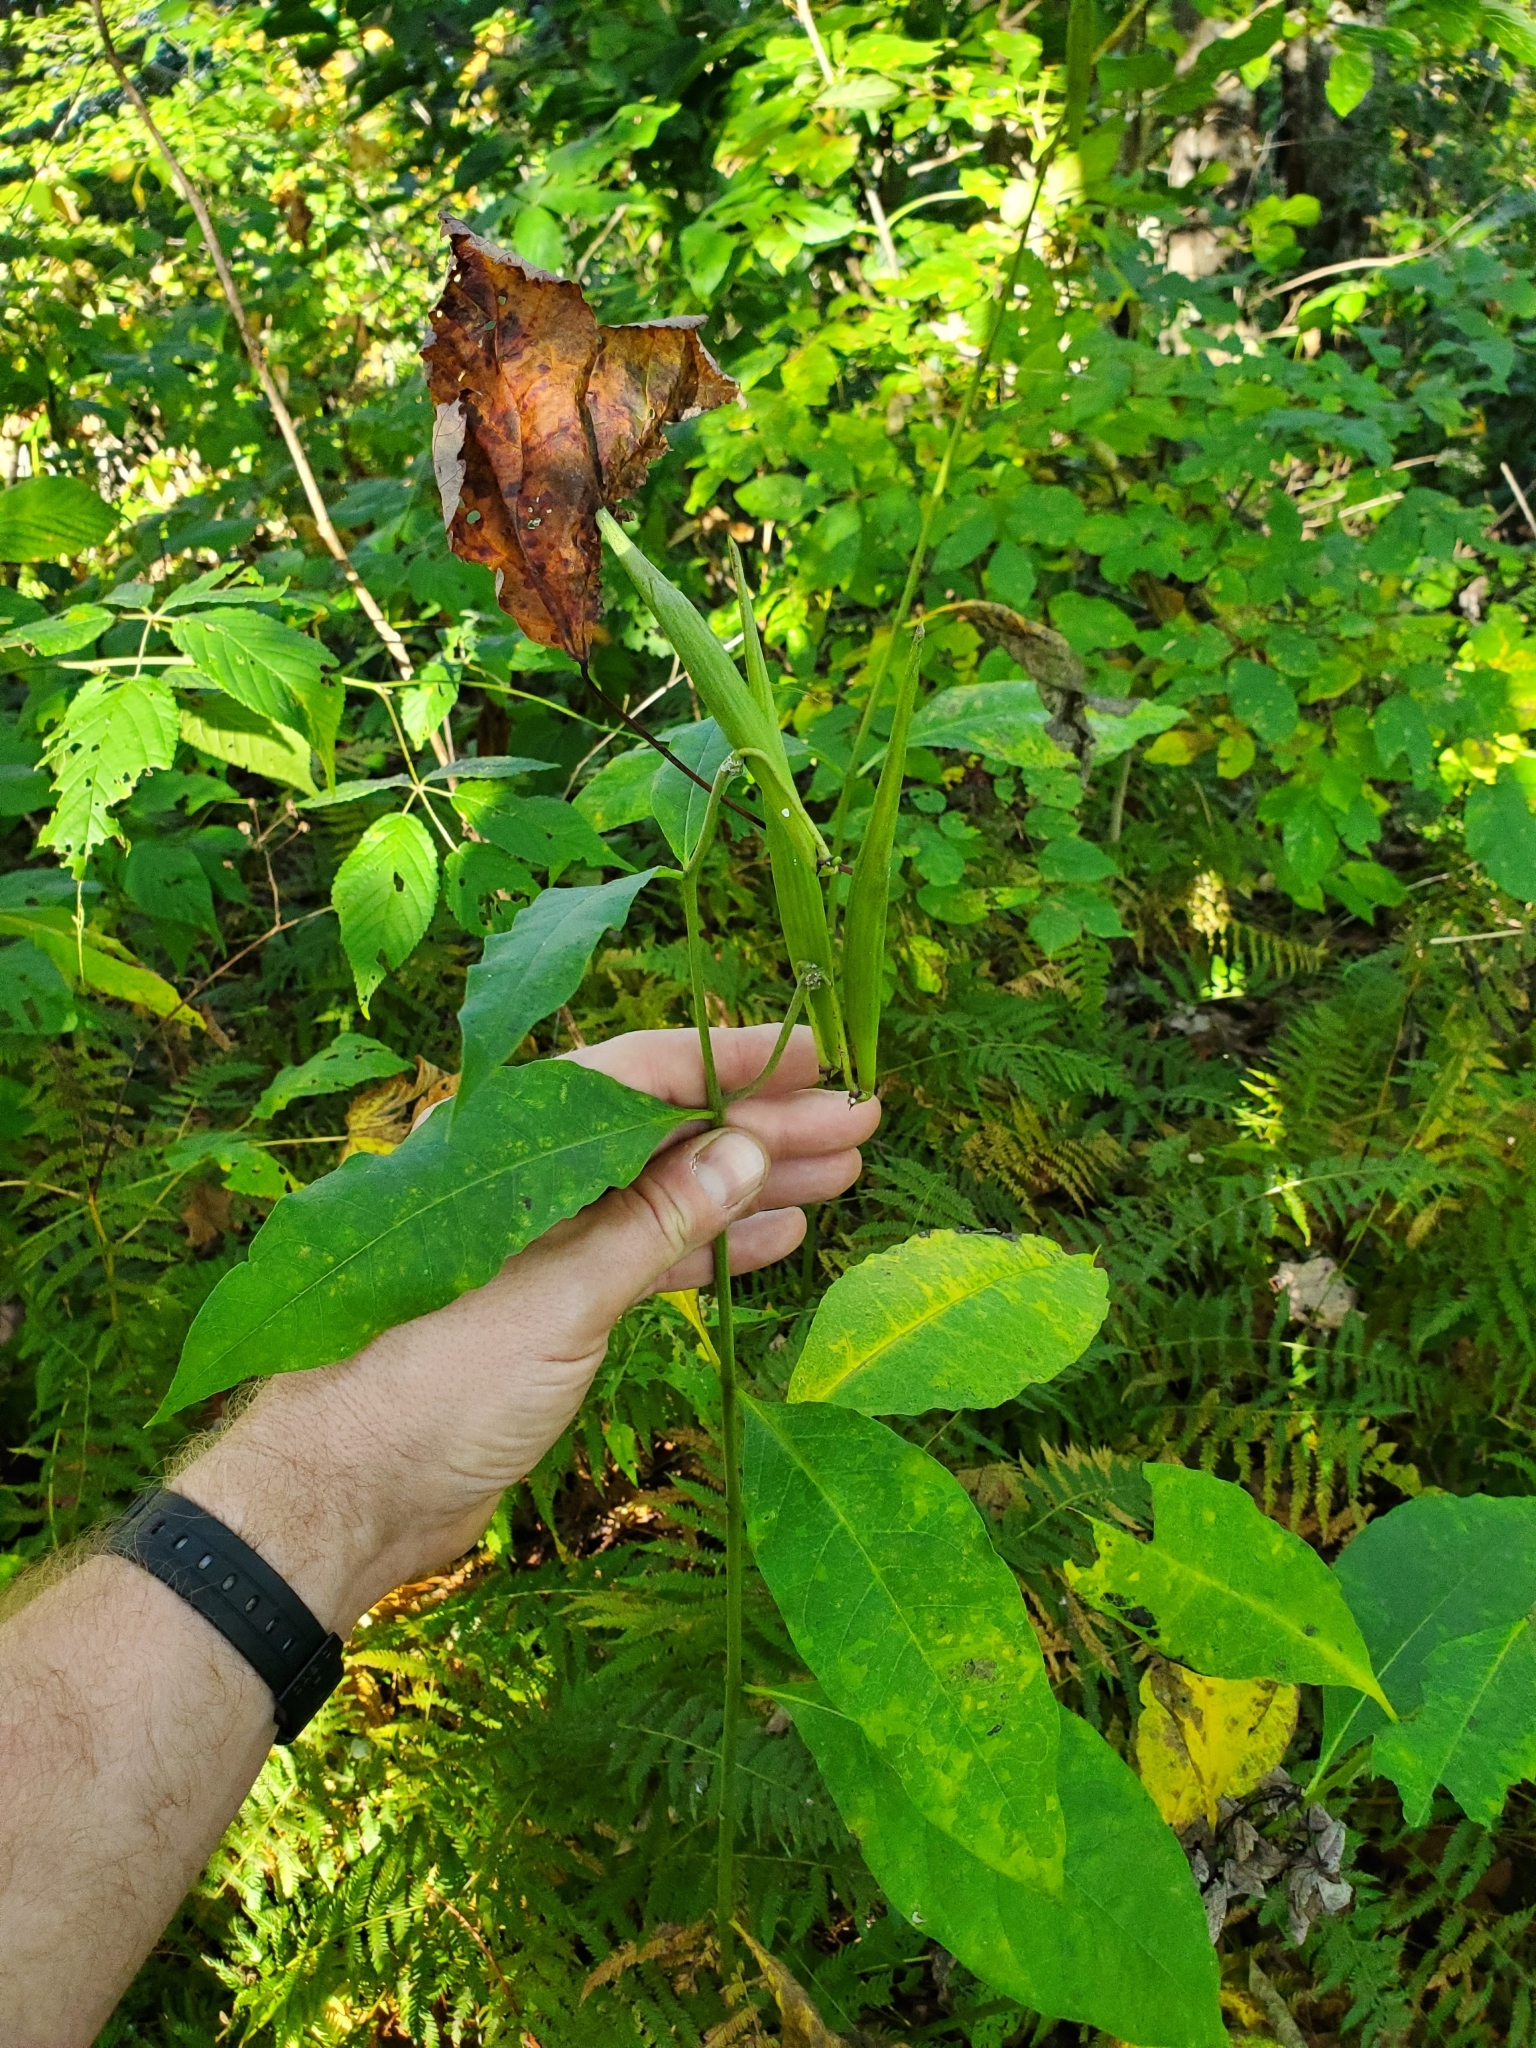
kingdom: Plantae
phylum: Tracheophyta
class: Magnoliopsida
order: Gentianales
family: Apocynaceae
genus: Asclepias
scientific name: Asclepias exaltata
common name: Poke milkweed
